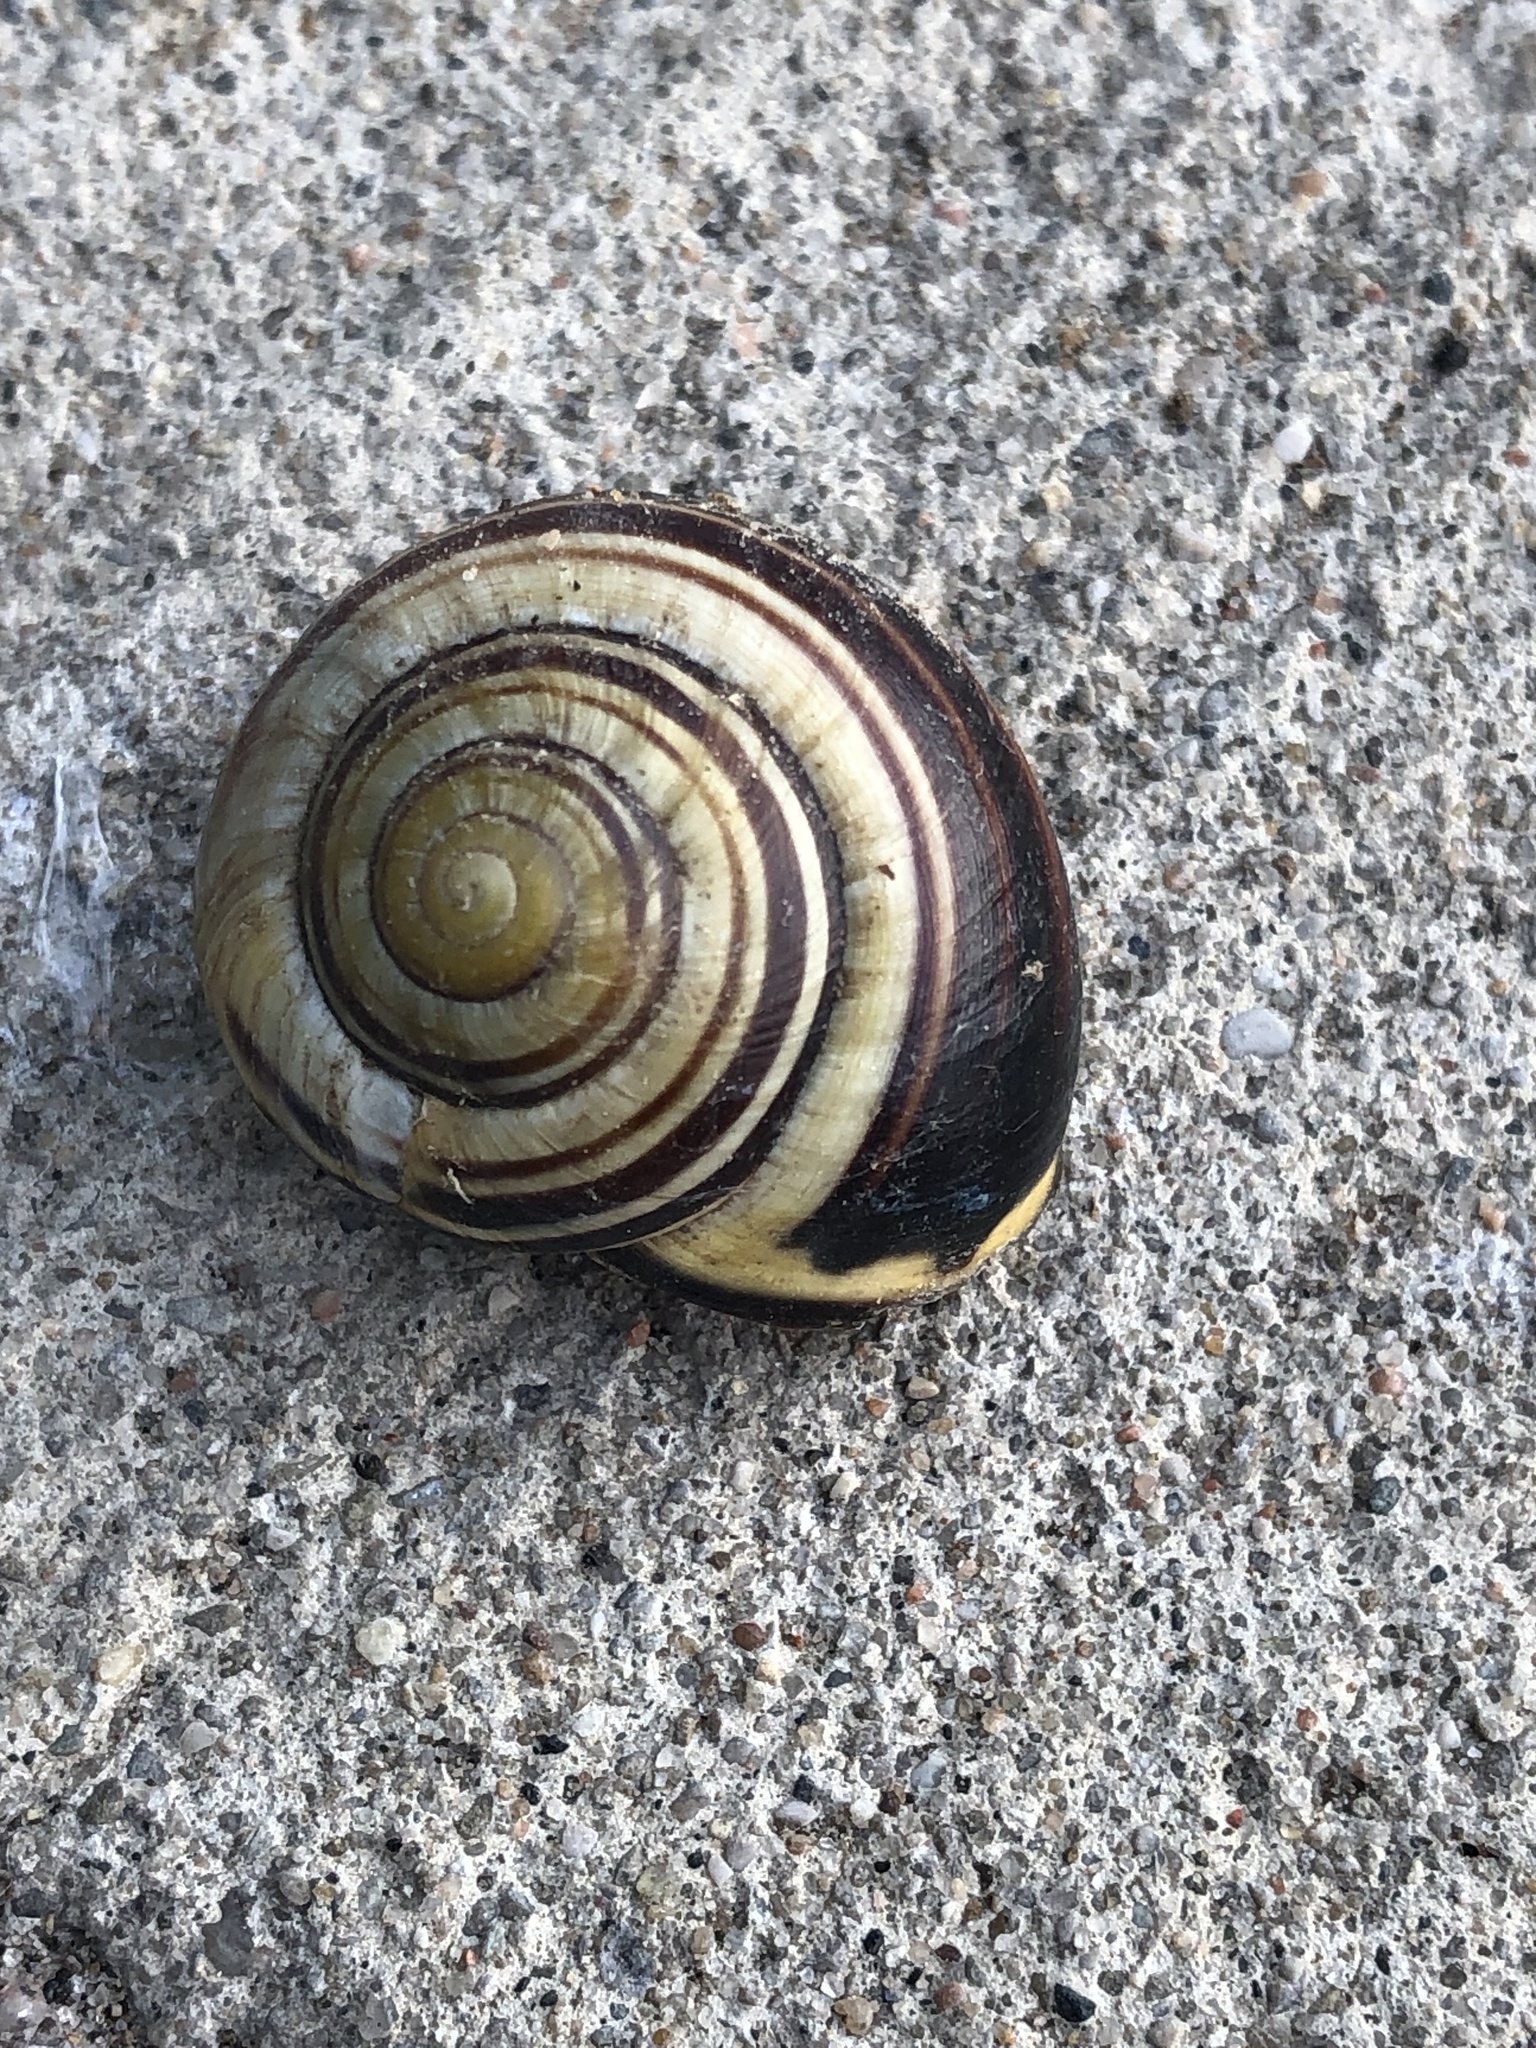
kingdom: Animalia
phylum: Mollusca
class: Gastropoda
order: Stylommatophora
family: Helicidae
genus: Cepaea
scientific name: Cepaea nemoralis
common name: Grovesnail
